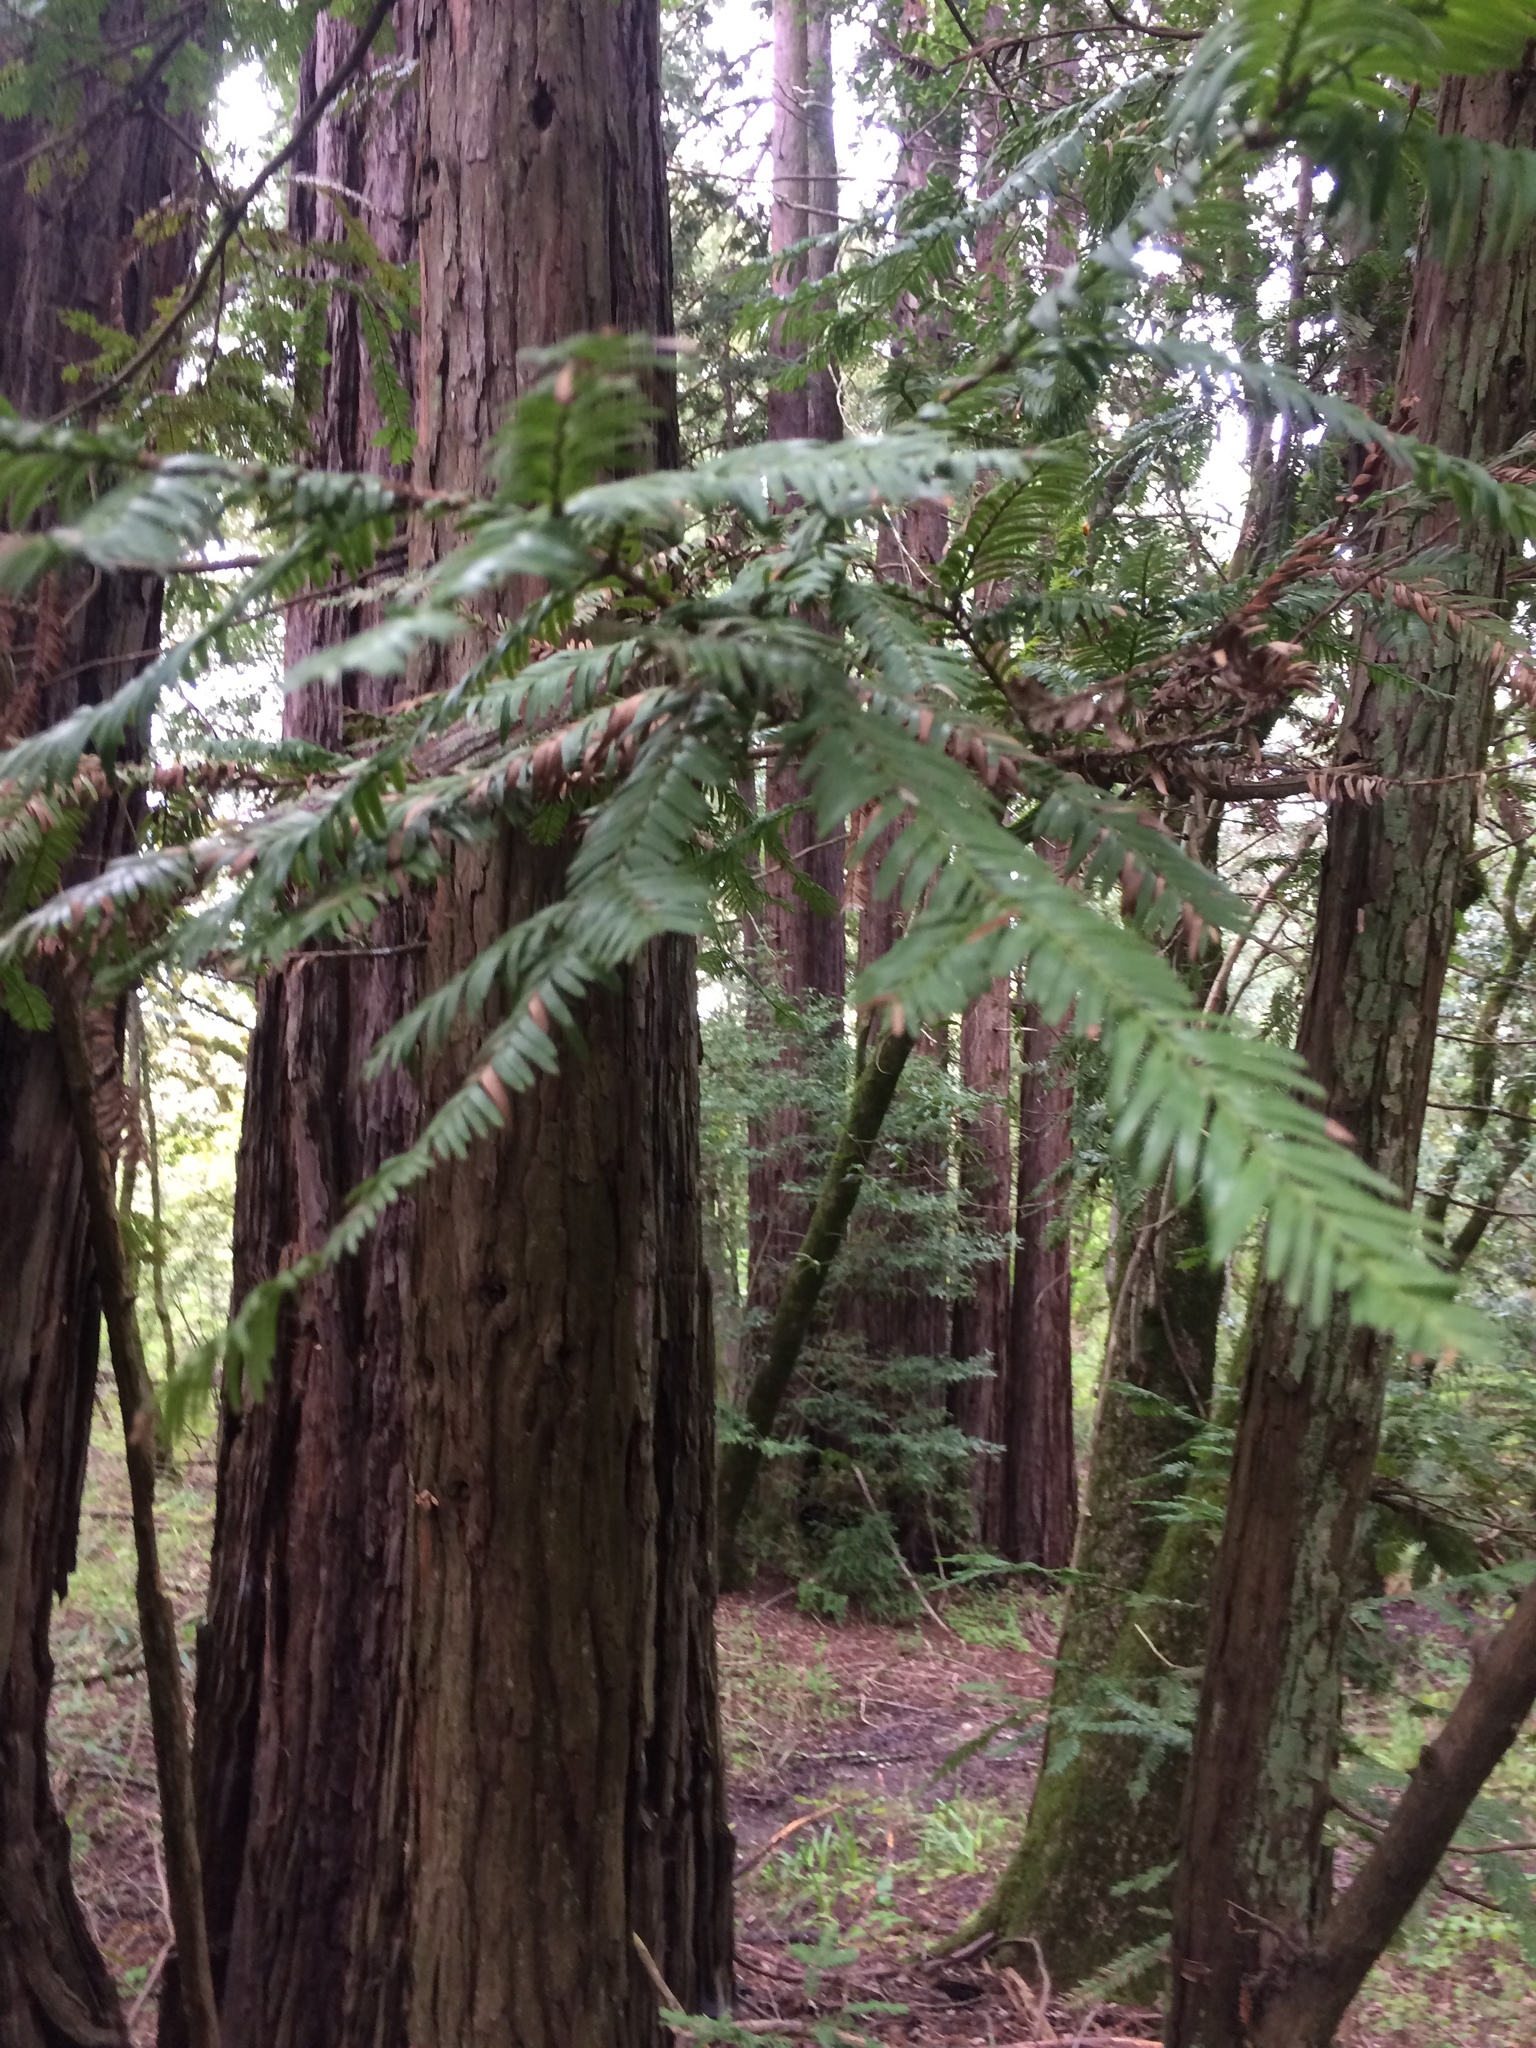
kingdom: Plantae
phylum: Tracheophyta
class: Pinopsida
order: Pinales
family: Cupressaceae
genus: Sequoia
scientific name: Sequoia sempervirens
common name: Coast redwood
